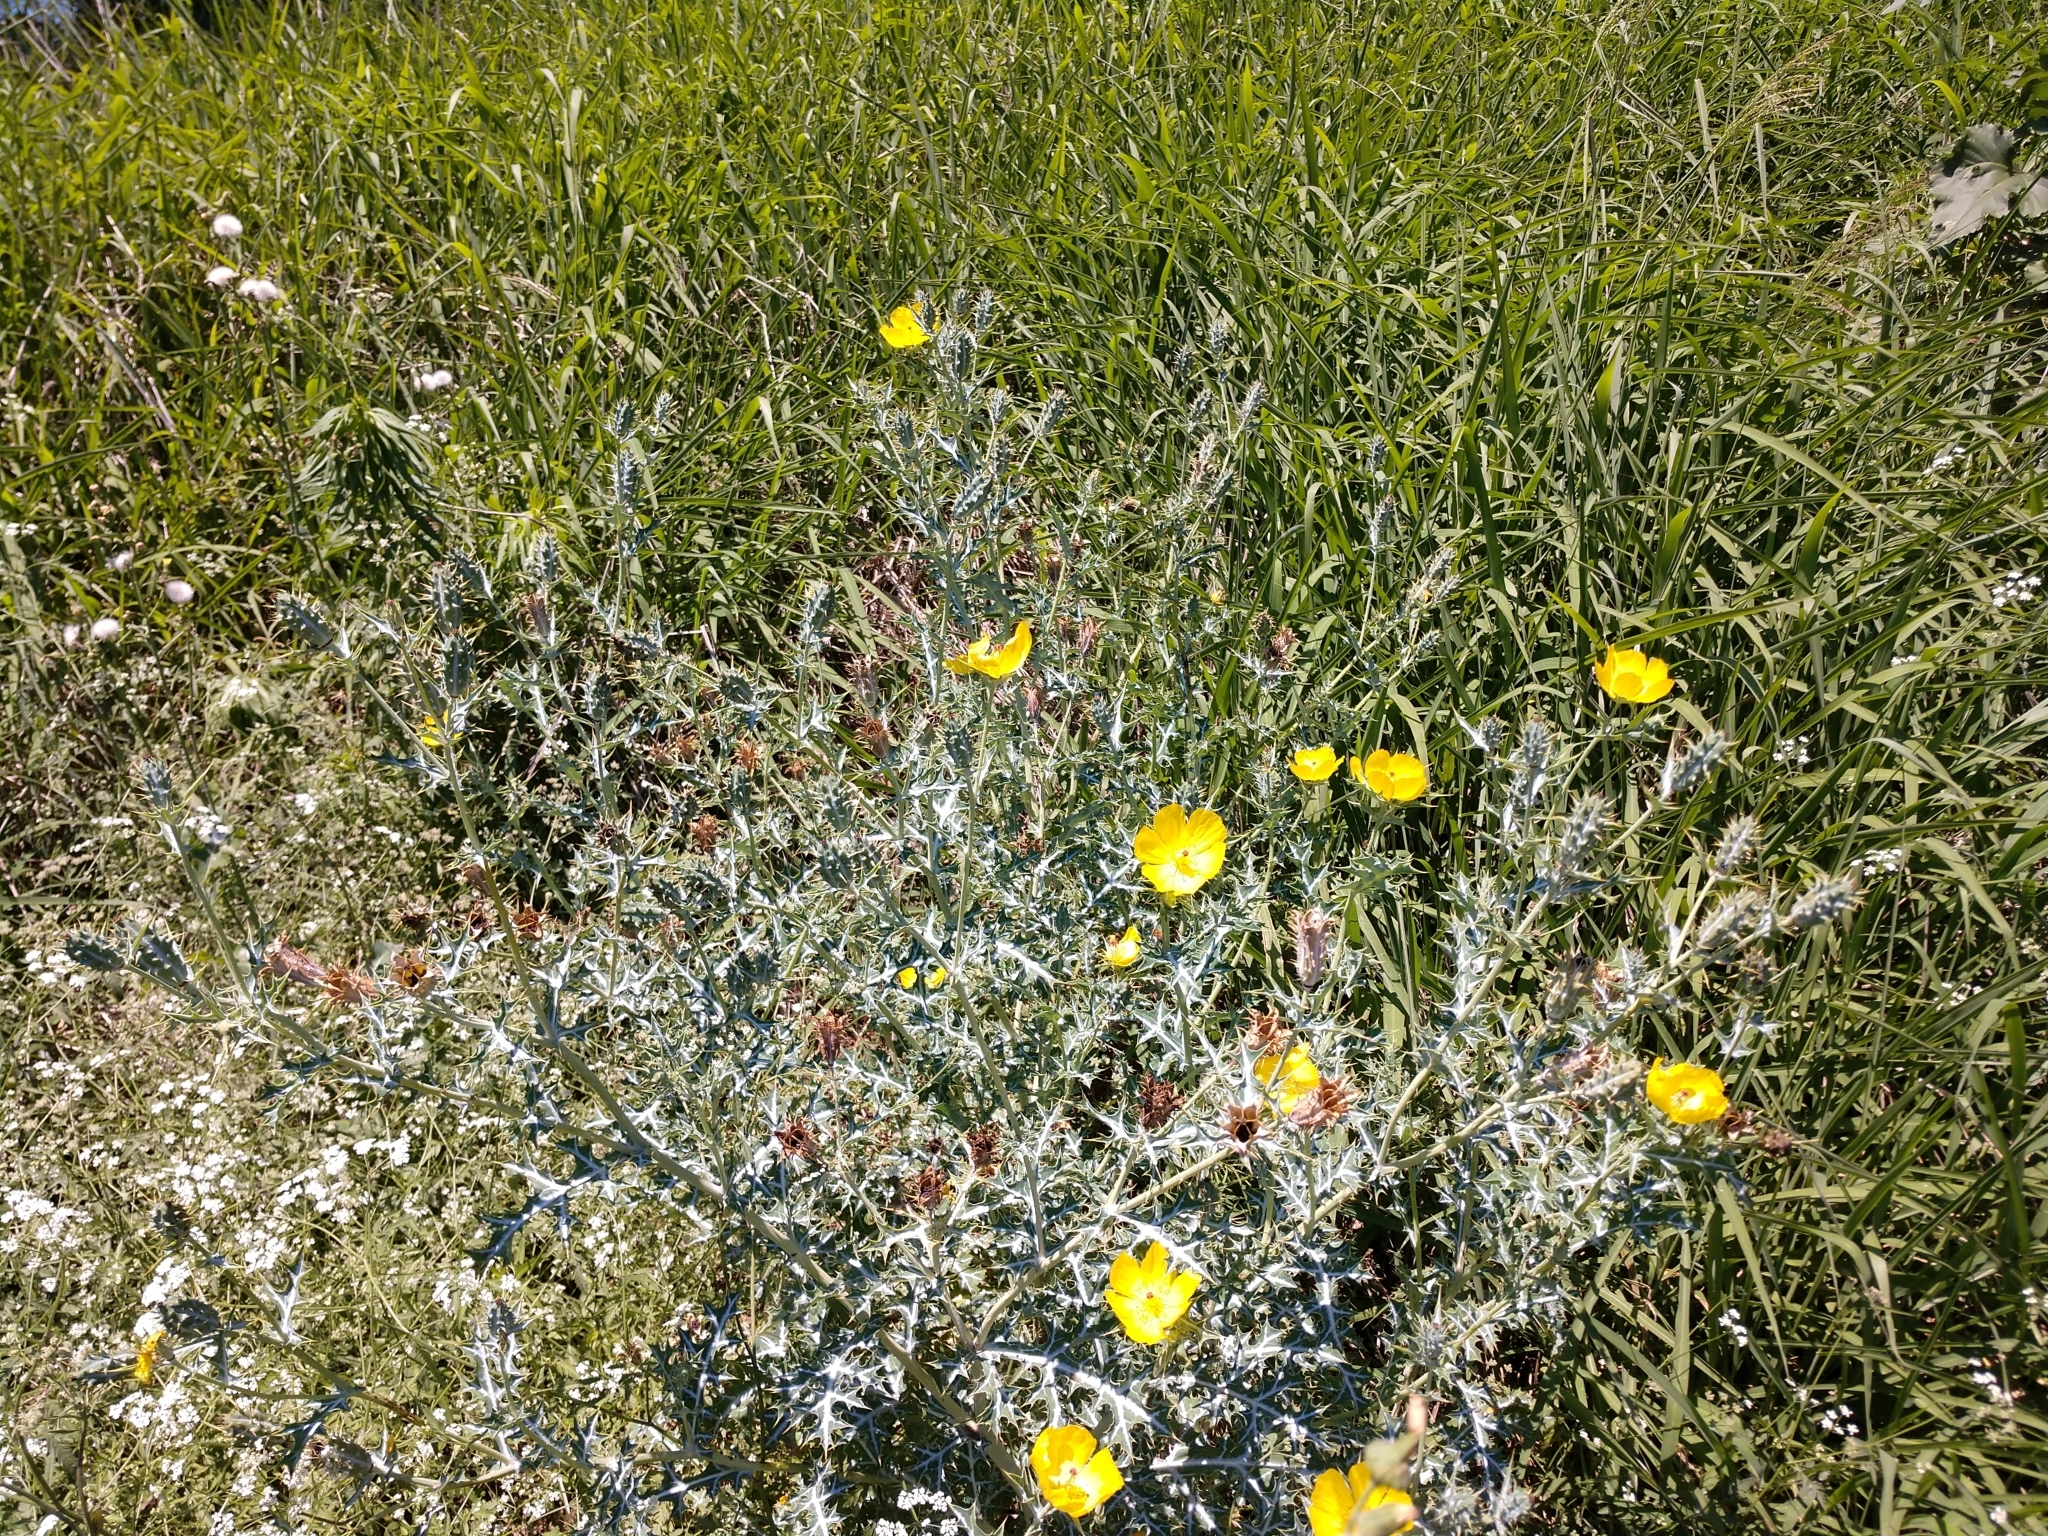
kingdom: Plantae
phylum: Tracheophyta
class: Magnoliopsida
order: Ranunculales
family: Papaveraceae
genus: Argemone
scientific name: Argemone mexicana
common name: Mexican poppy
